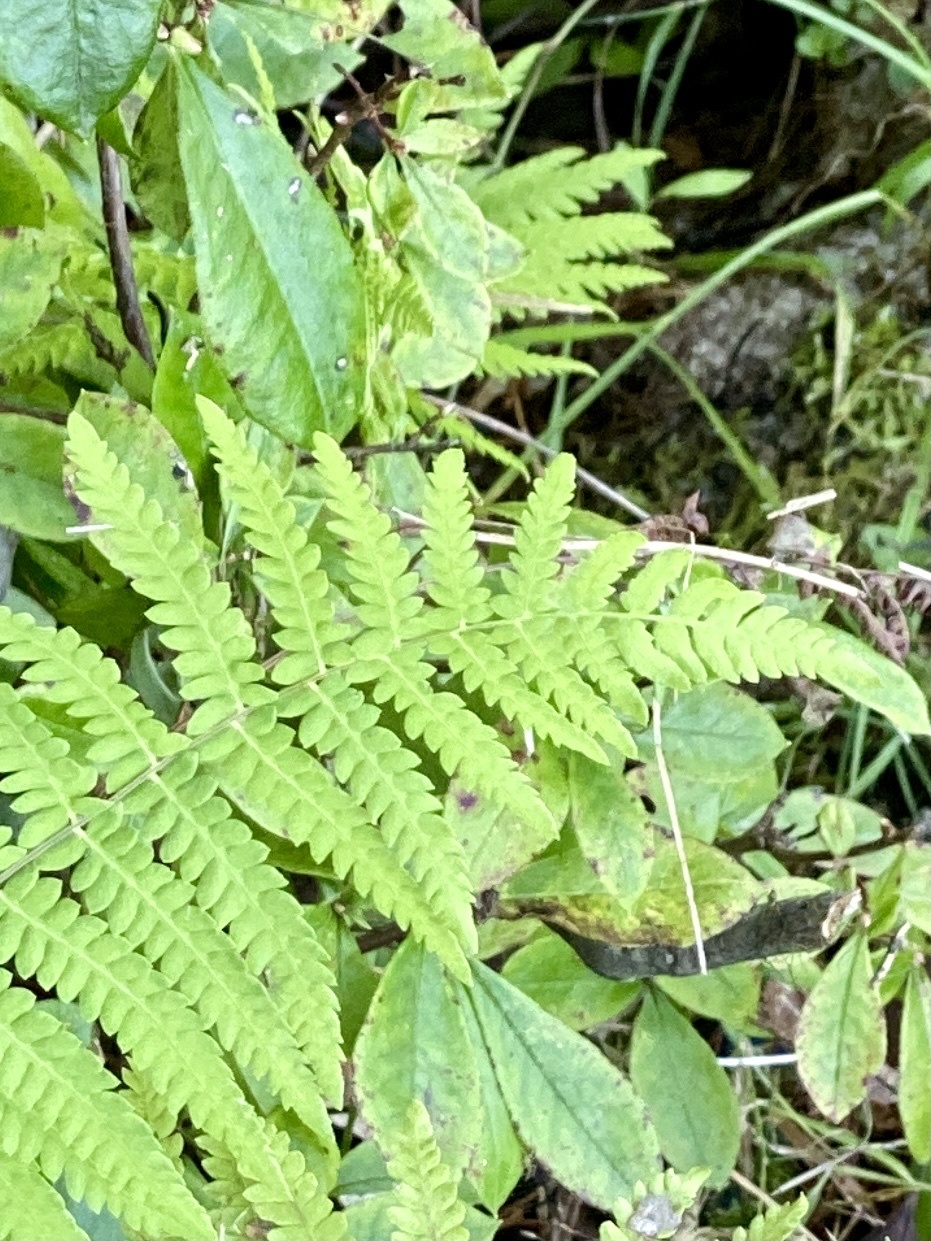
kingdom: Plantae
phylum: Tracheophyta
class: Polypodiopsida
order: Polypodiales
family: Thelypteridaceae
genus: Thelypteris
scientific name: Thelypteris palustris
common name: Marsh fern
